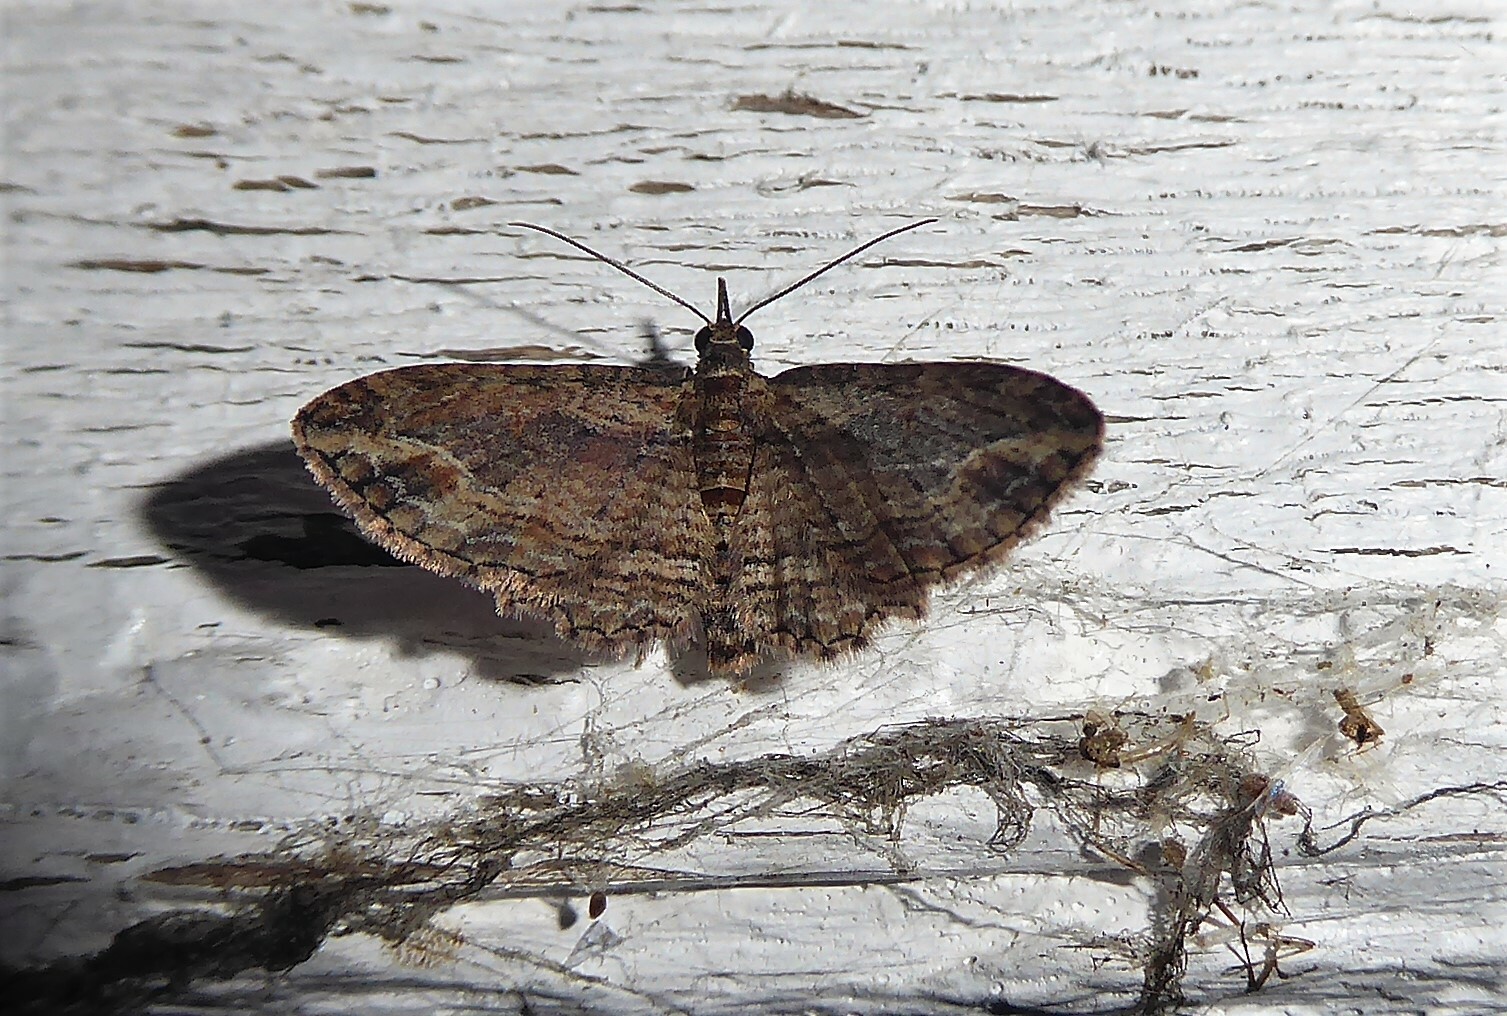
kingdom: Animalia
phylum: Arthropoda
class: Insecta
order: Lepidoptera
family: Geometridae
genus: Chloroclystis
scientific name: Chloroclystis filata
